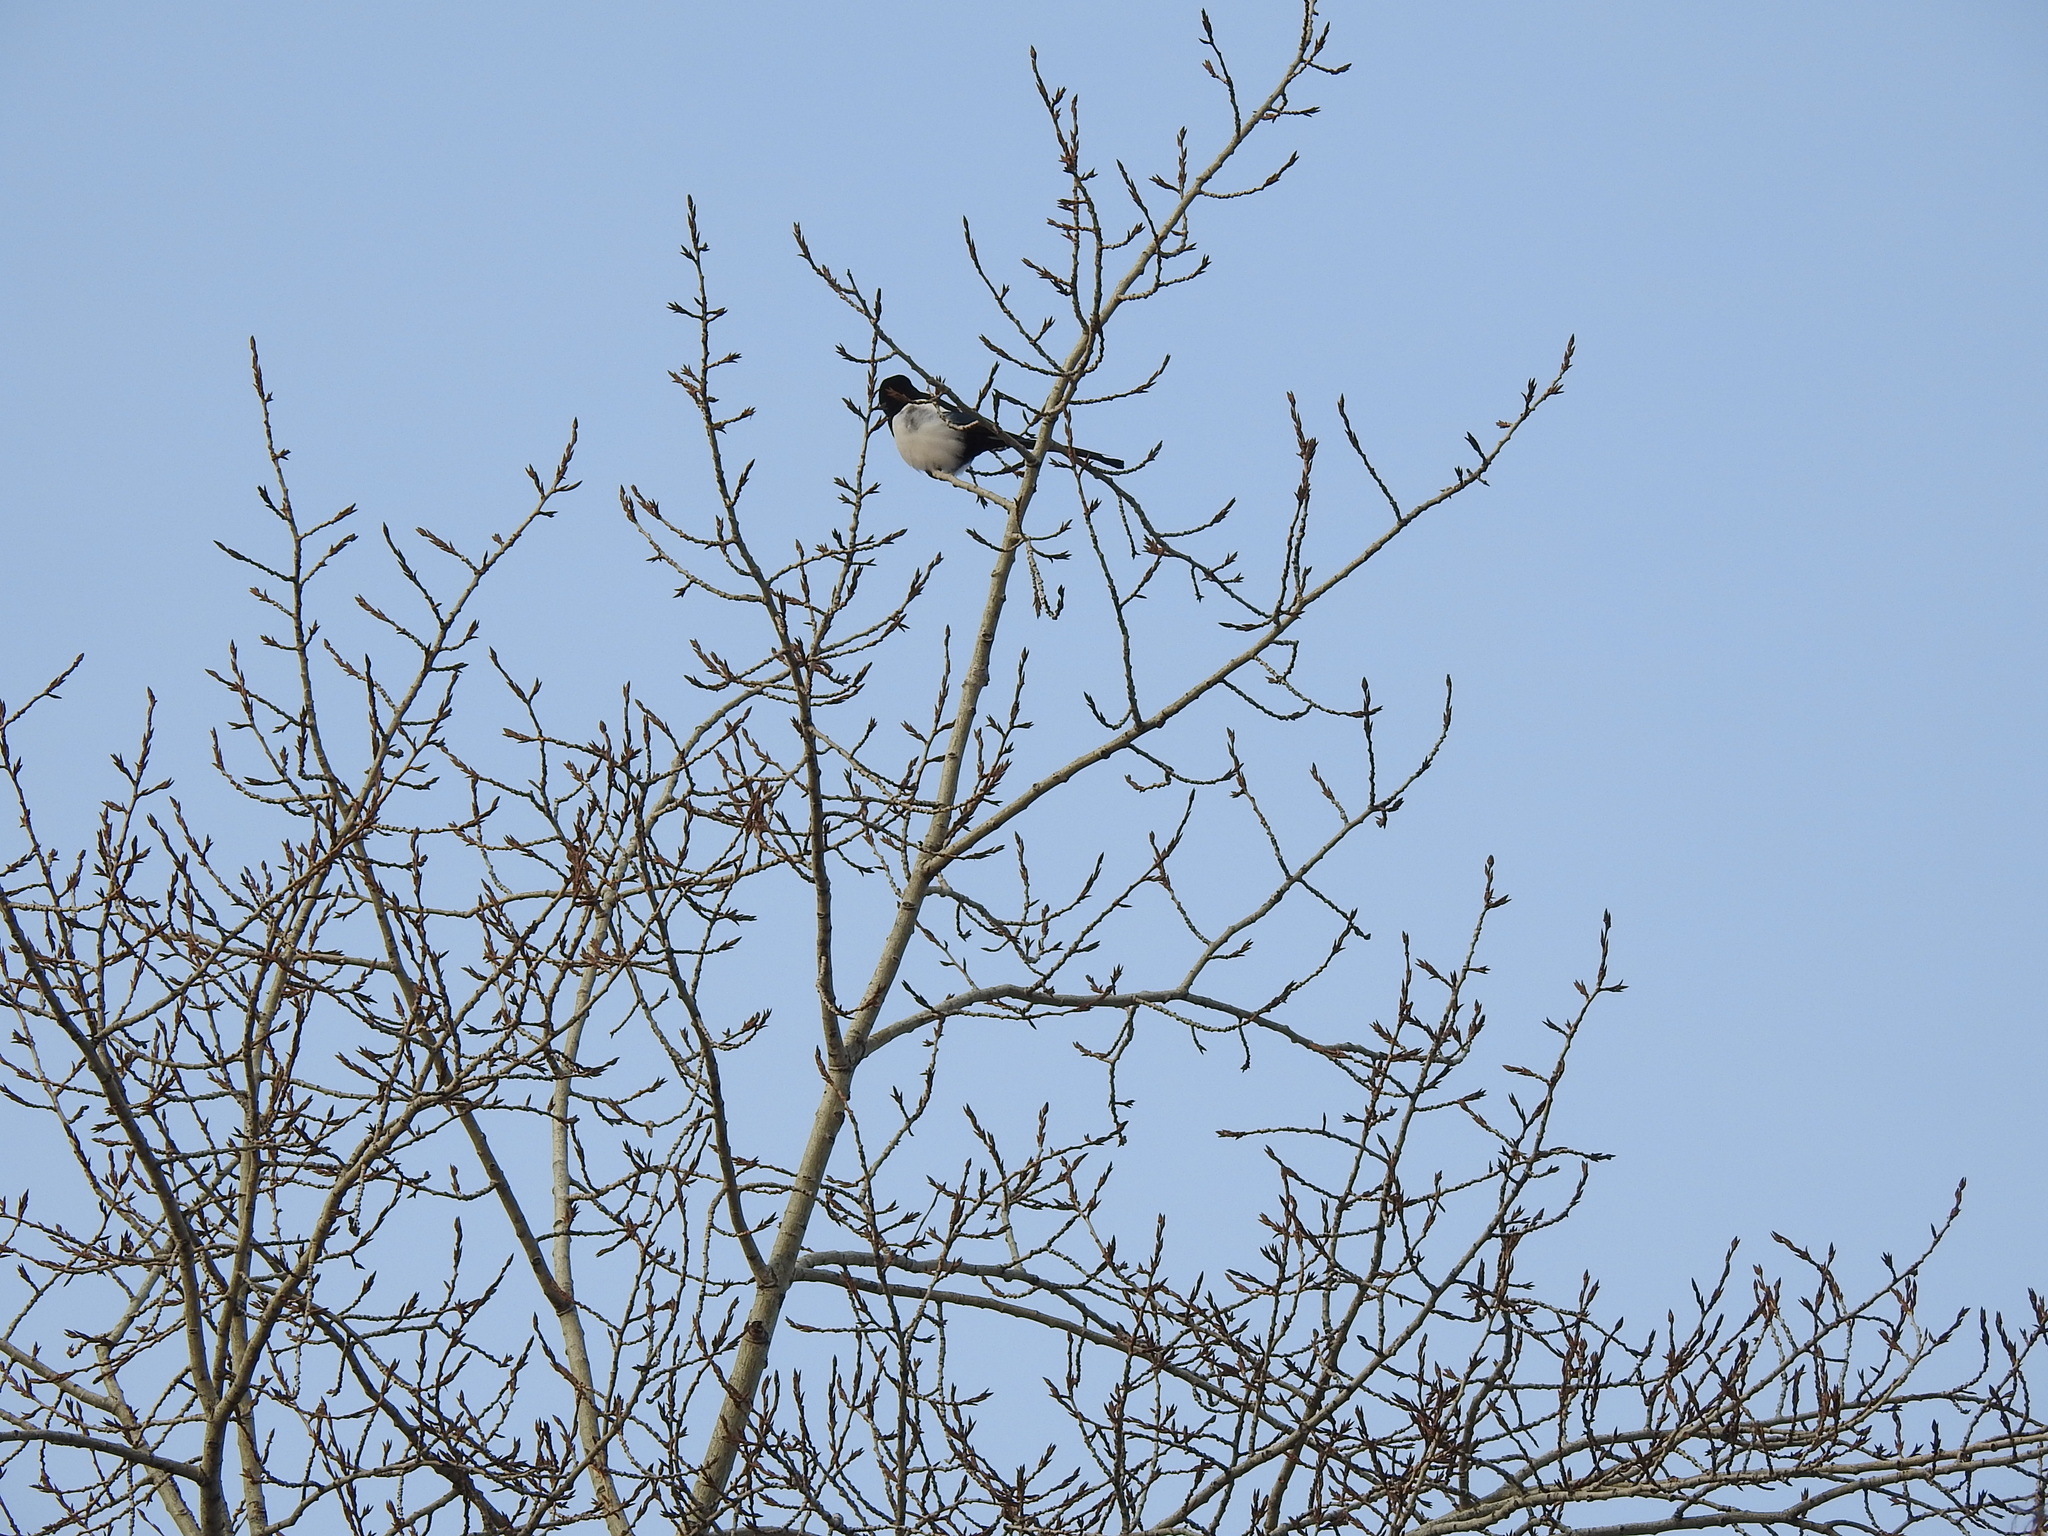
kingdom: Animalia
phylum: Chordata
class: Aves
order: Passeriformes
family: Corvidae
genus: Pica
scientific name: Pica pica
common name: Eurasian magpie
